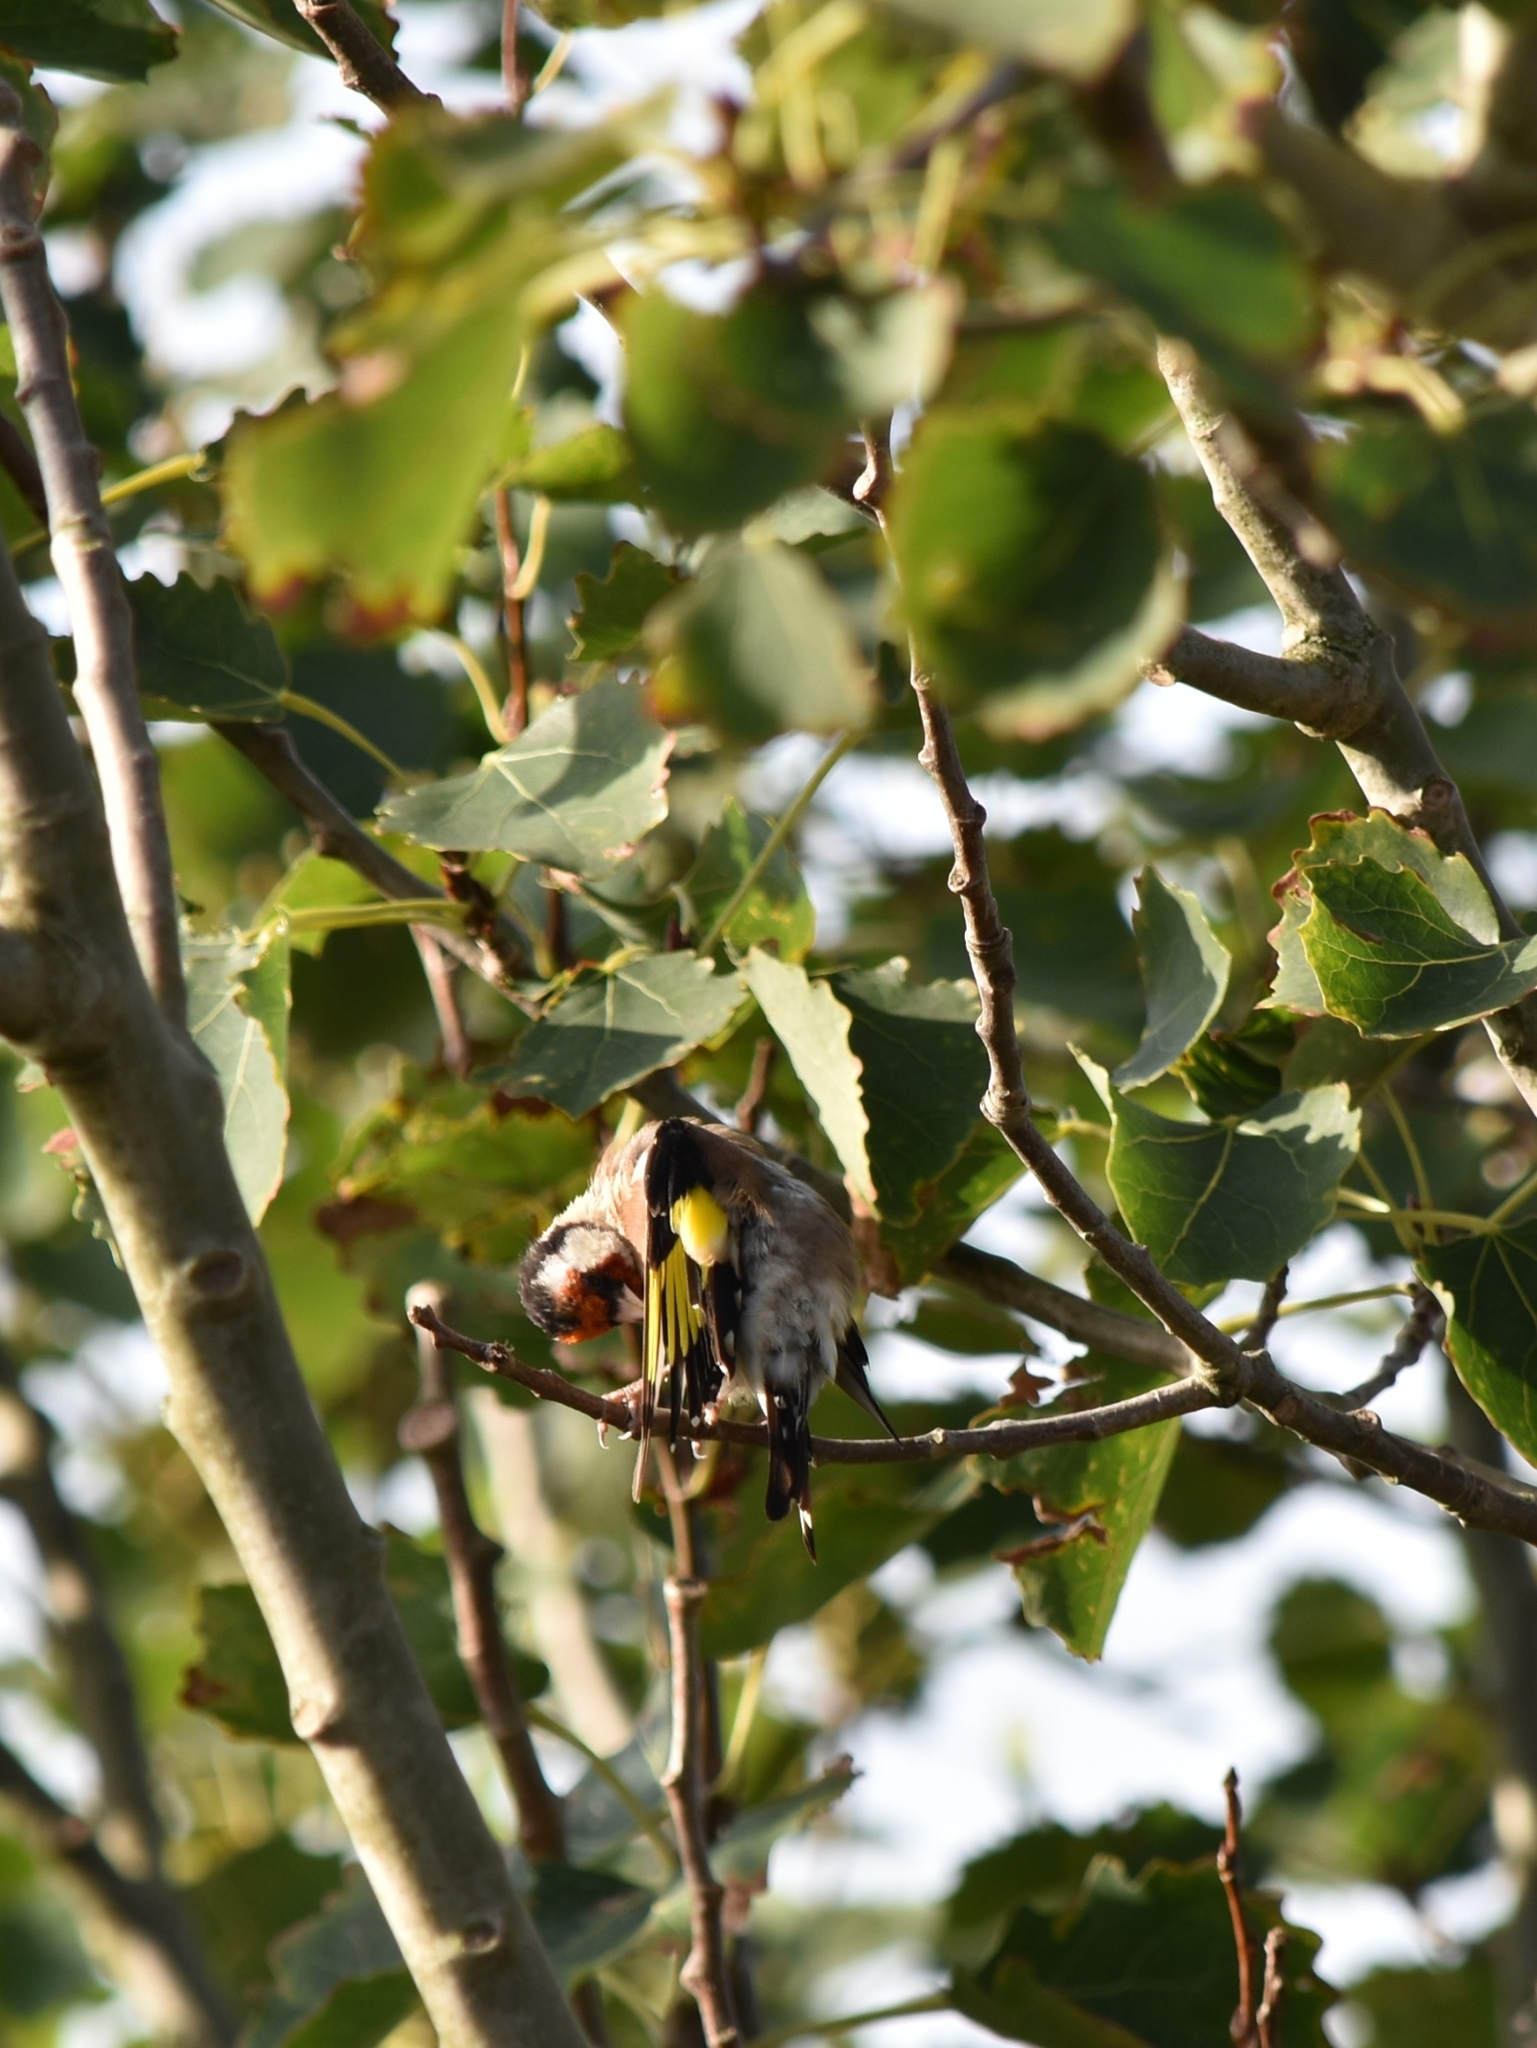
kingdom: Animalia
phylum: Chordata
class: Aves
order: Passeriformes
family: Fringillidae
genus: Carduelis
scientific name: Carduelis carduelis
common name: European goldfinch
